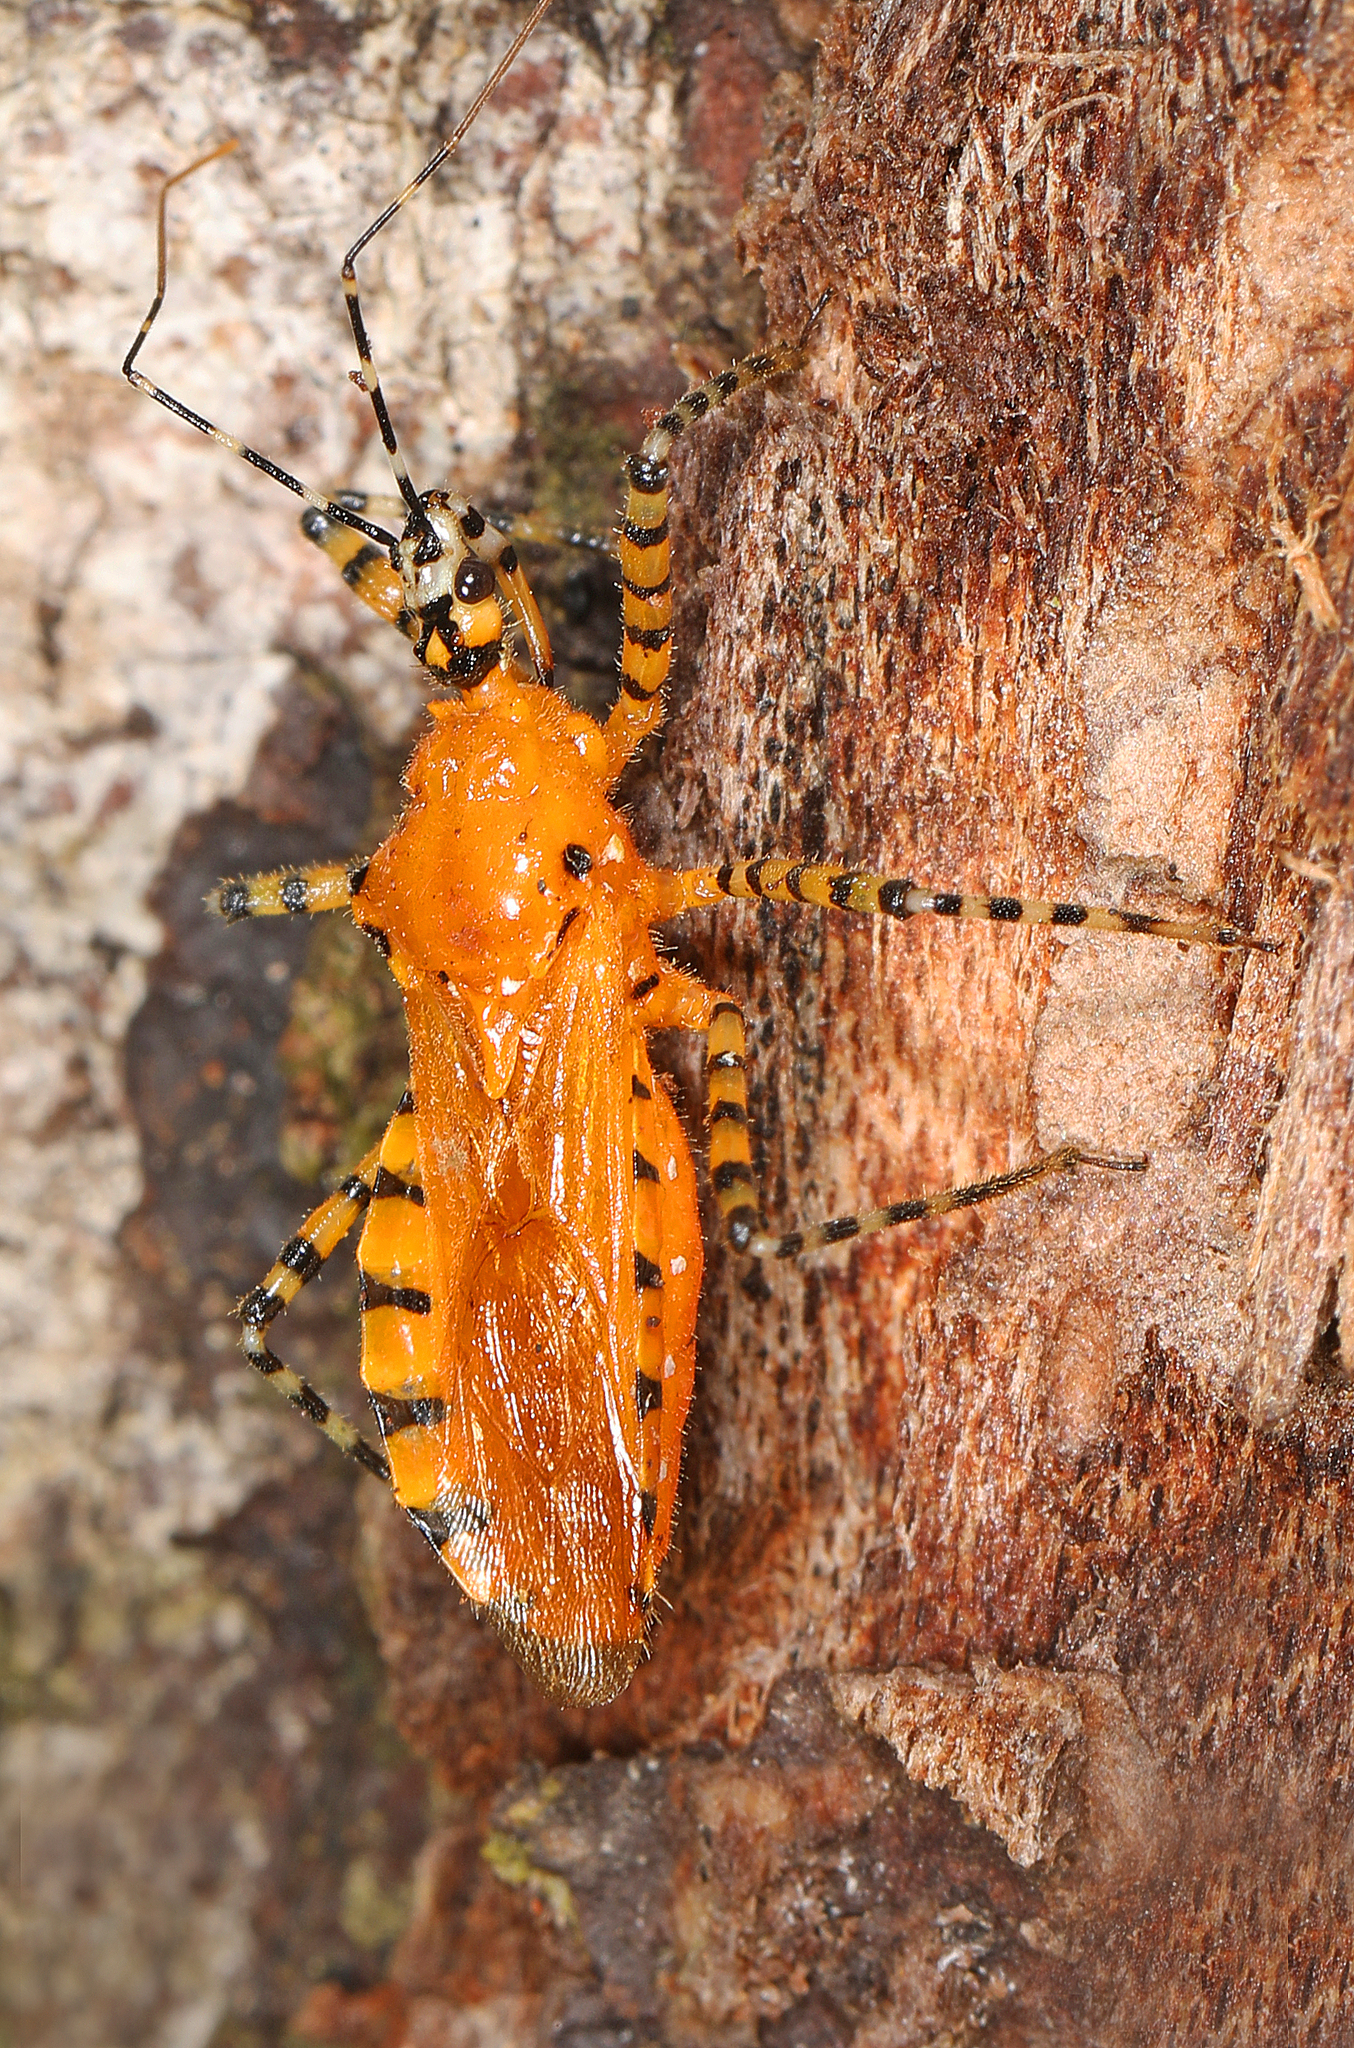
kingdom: Animalia
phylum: Arthropoda
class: Insecta
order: Hemiptera
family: Reduviidae
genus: Pselliopus
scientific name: Pselliopus barberi
